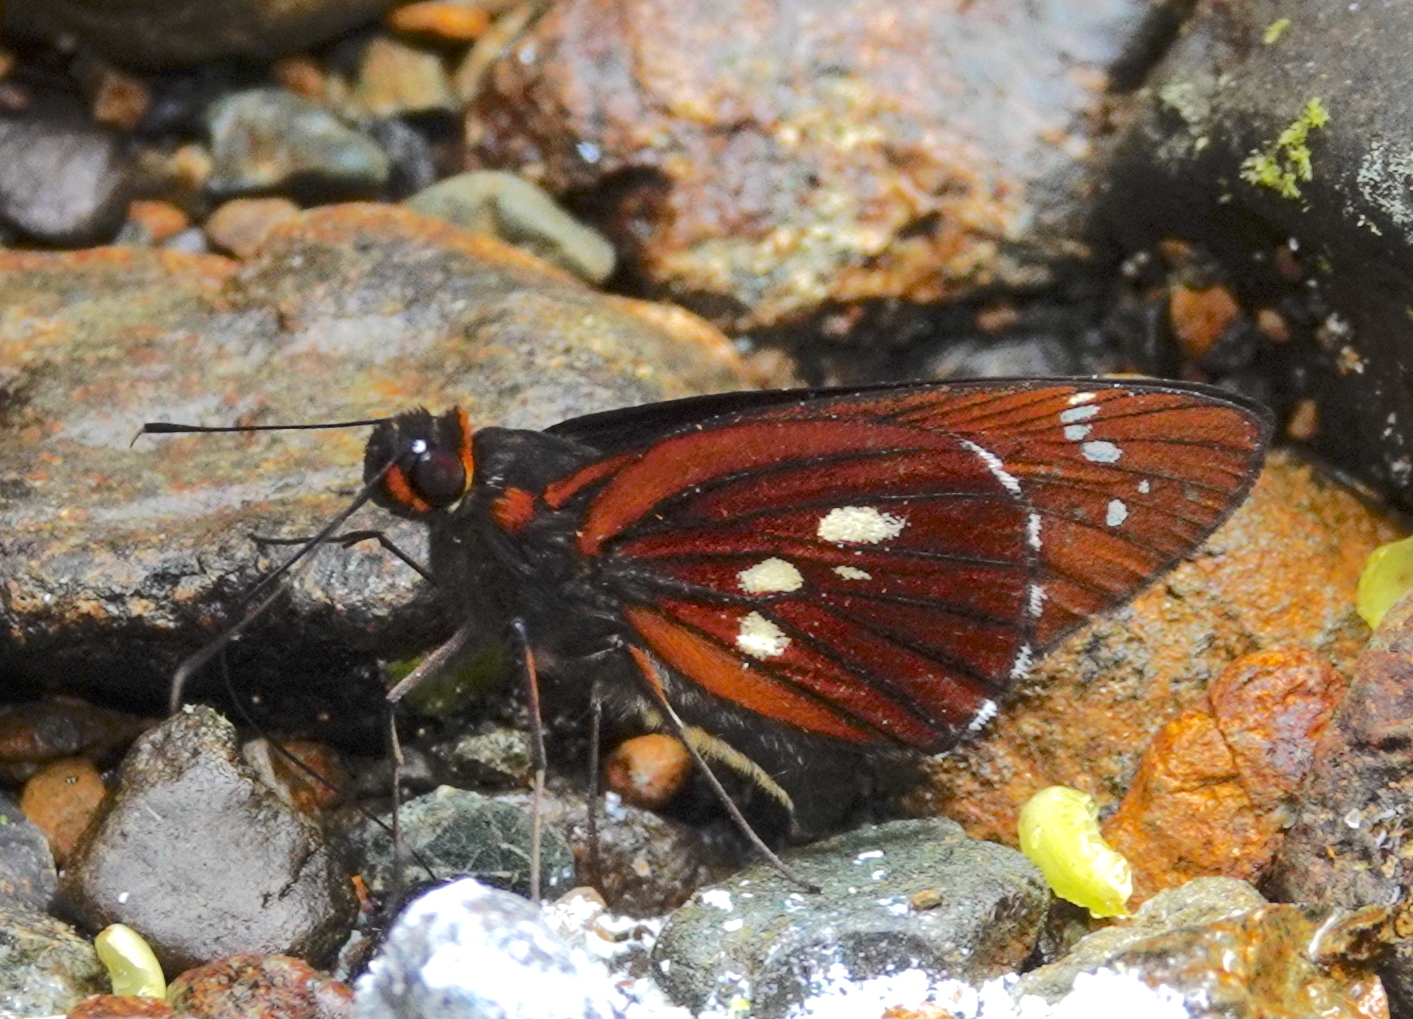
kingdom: Animalia
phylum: Arthropoda
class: Insecta
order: Lepidoptera
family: Hesperiidae
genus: Carystina
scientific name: Carystina
